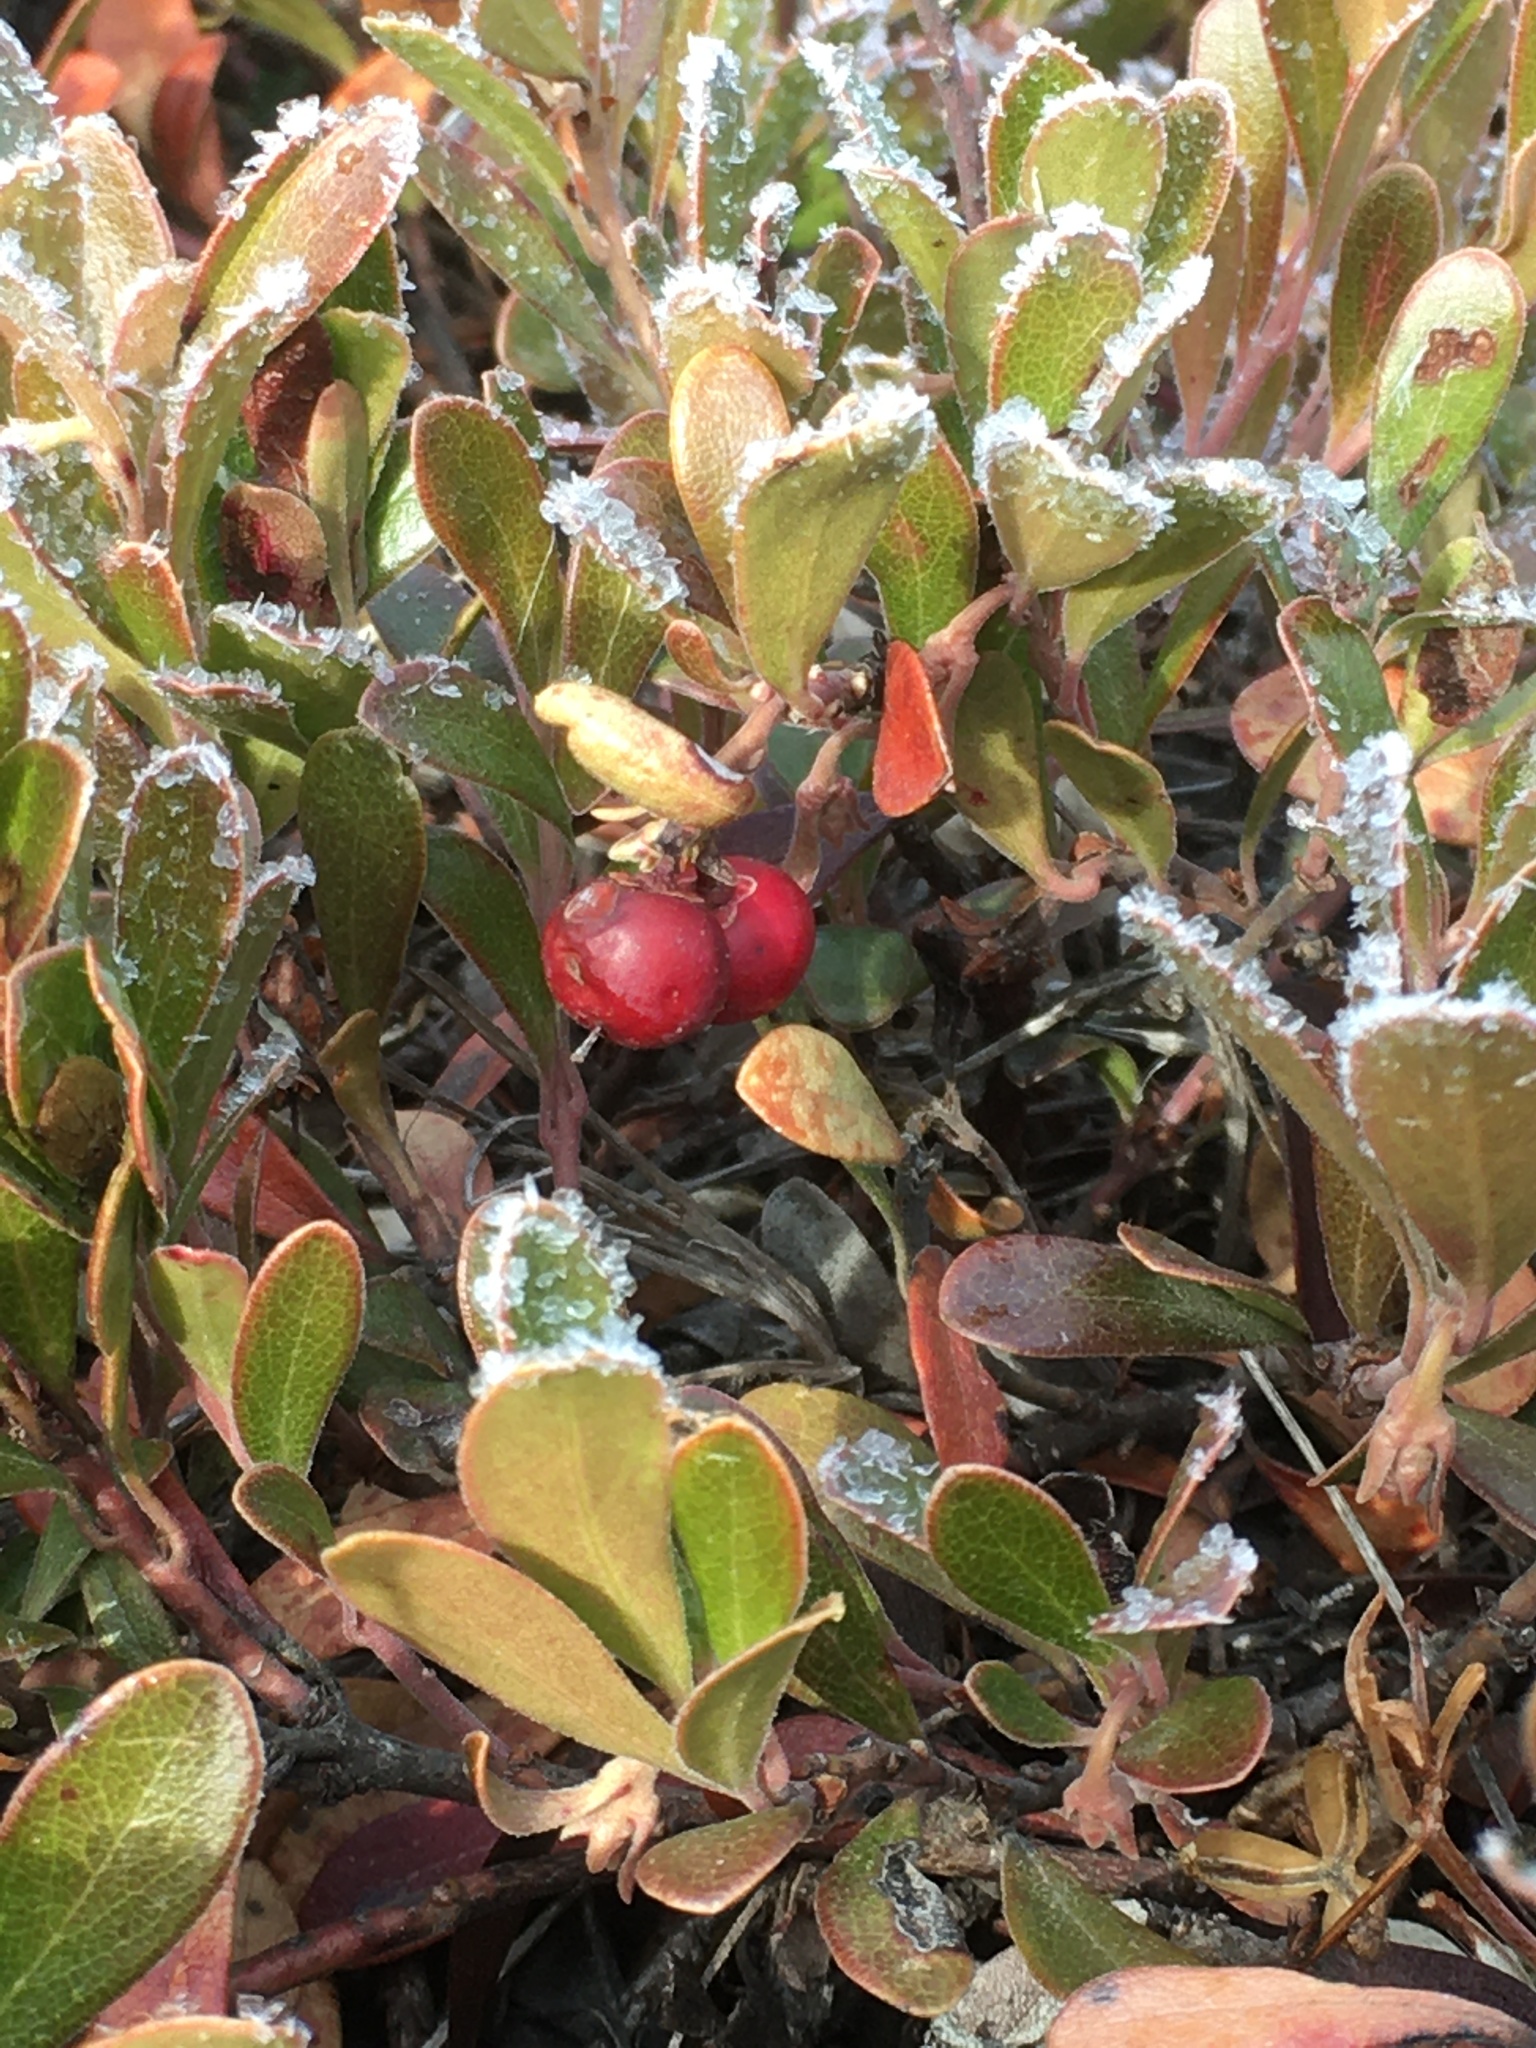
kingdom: Plantae
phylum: Tracheophyta
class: Magnoliopsida
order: Ericales
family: Ericaceae
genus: Arctostaphylos
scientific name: Arctostaphylos uva-ursi
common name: Bearberry
